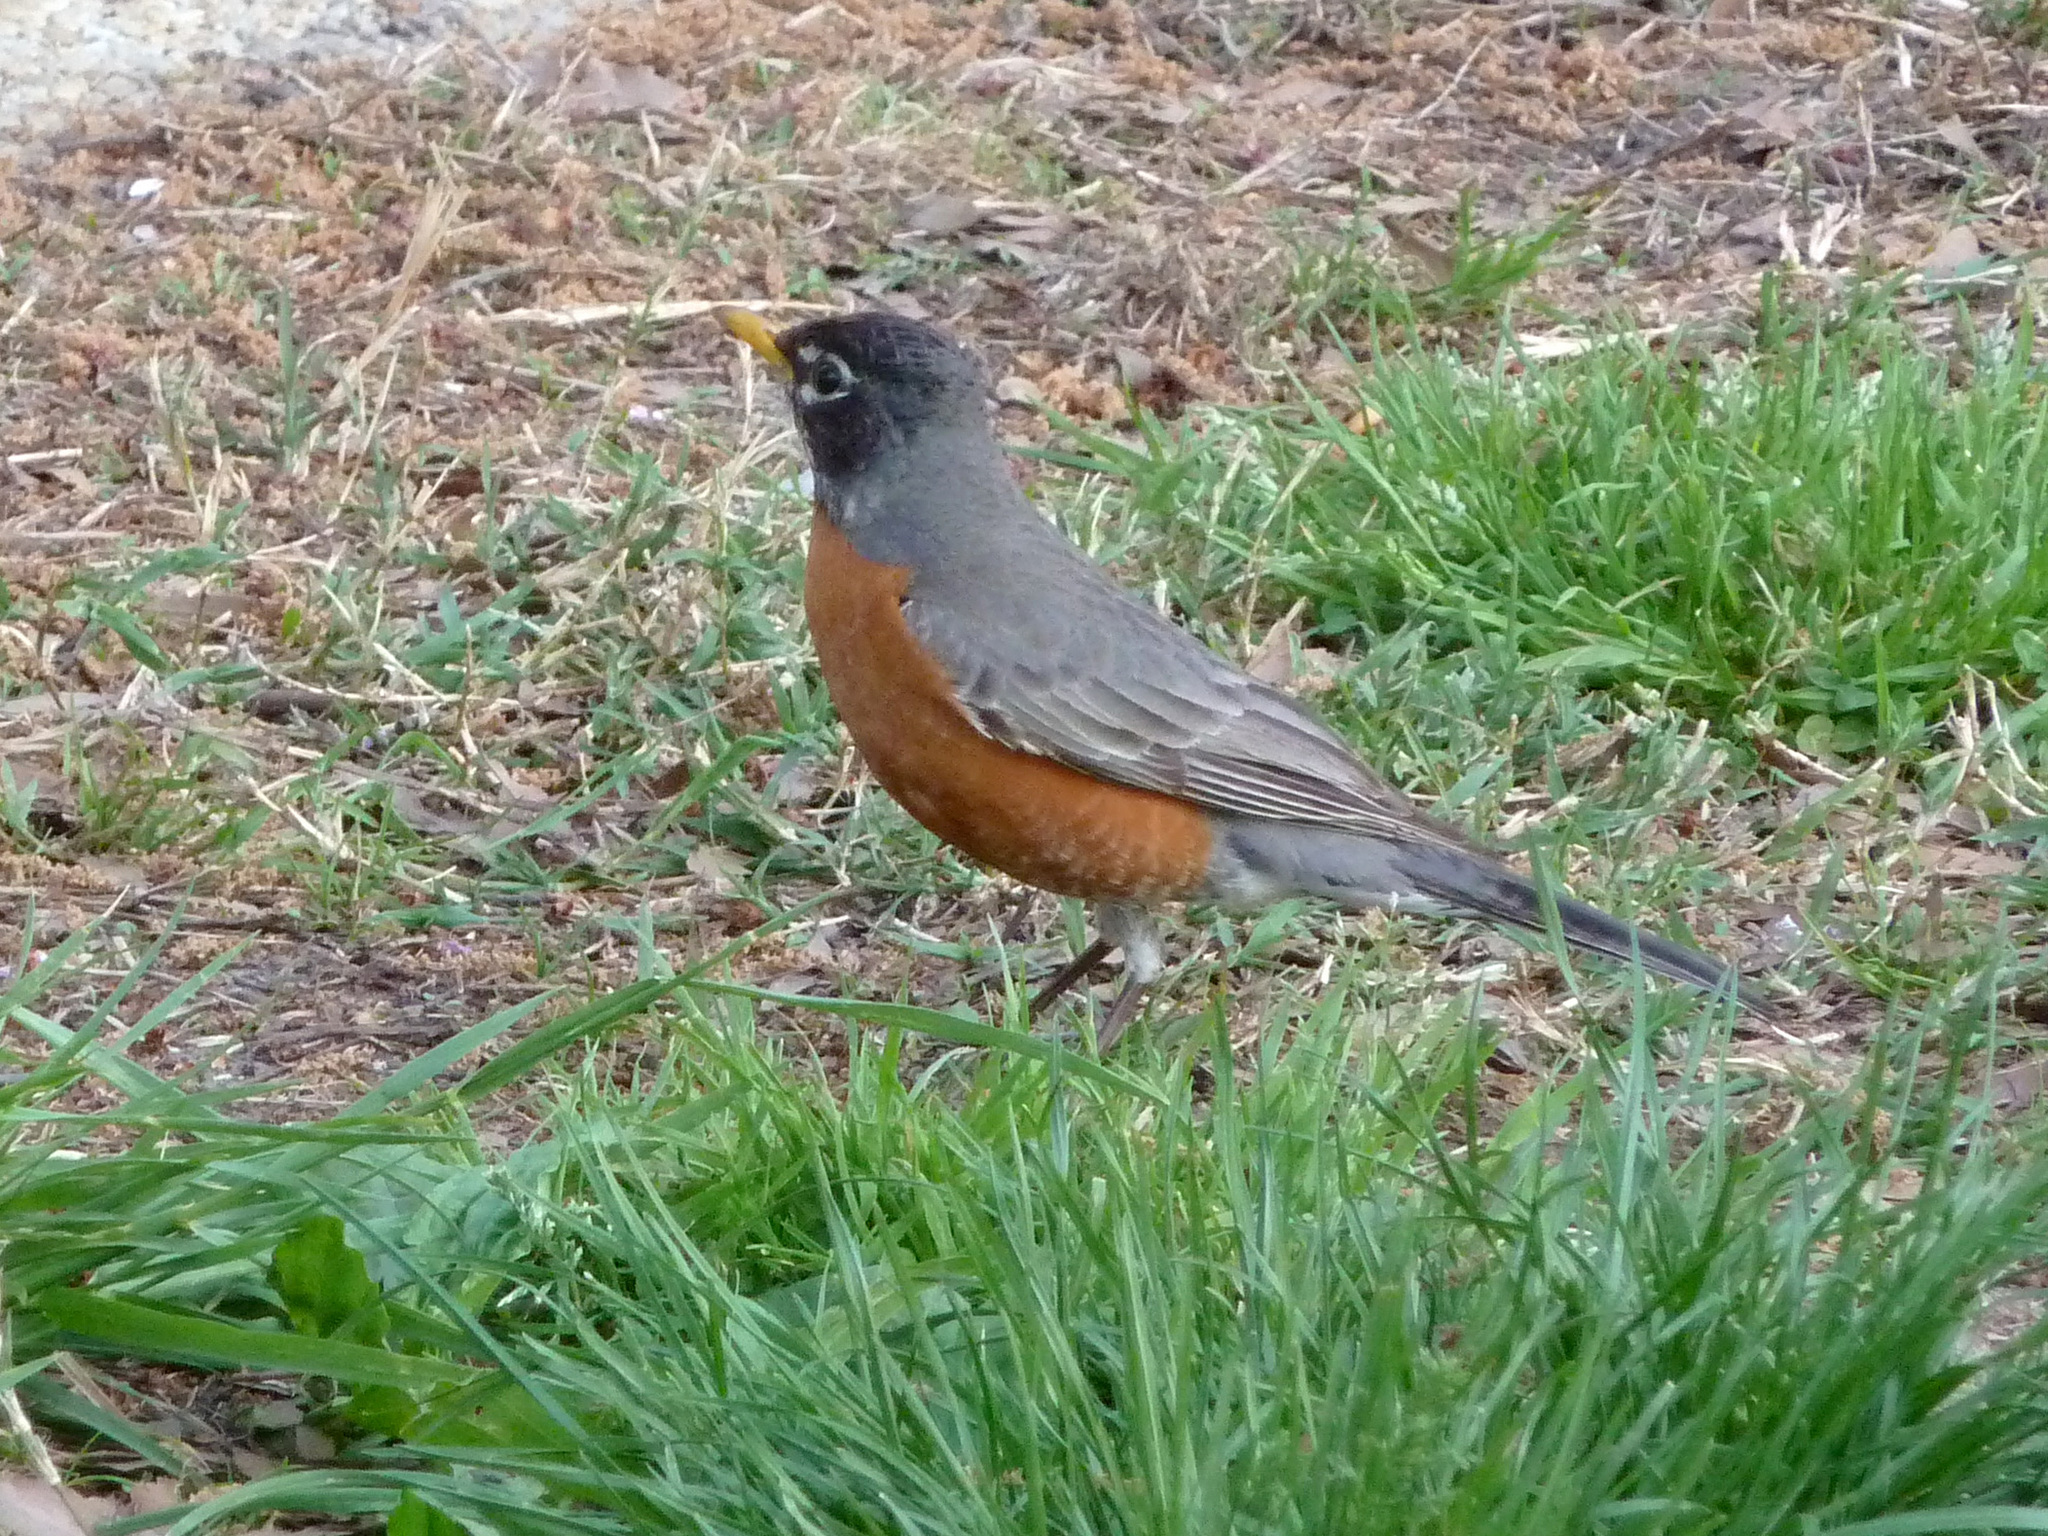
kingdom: Animalia
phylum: Chordata
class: Aves
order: Passeriformes
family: Turdidae
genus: Turdus
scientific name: Turdus migratorius
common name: American robin
